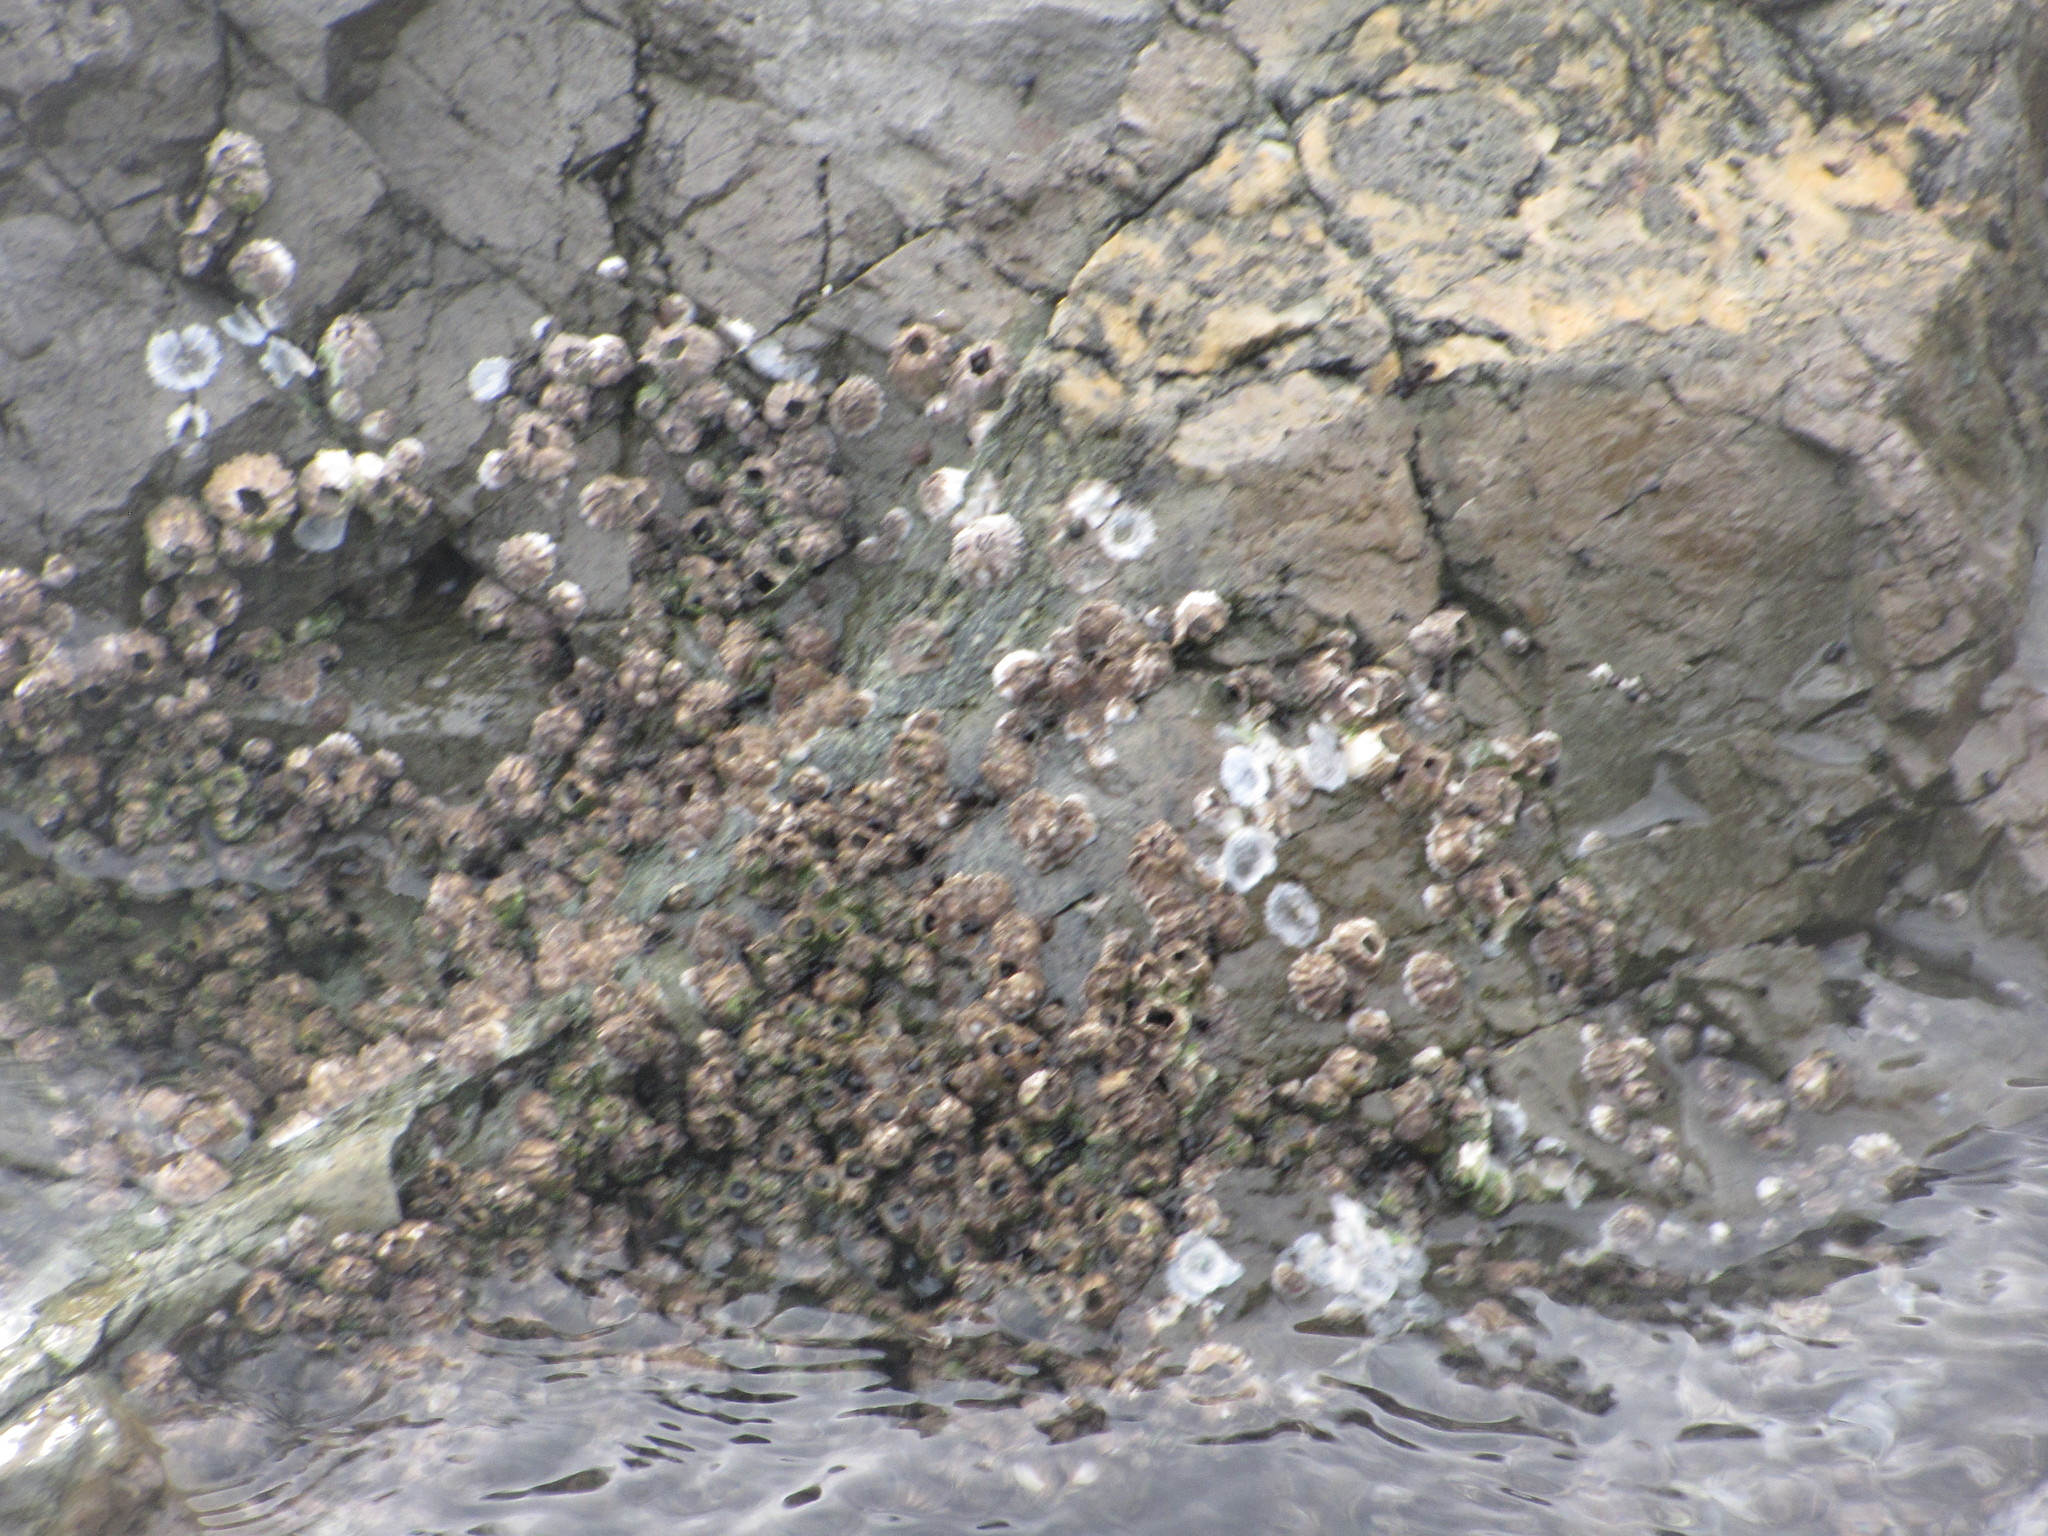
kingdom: Animalia
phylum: Arthropoda
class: Maxillopoda
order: Sessilia
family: Balanidae
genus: Balanus
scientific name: Balanus glandula
